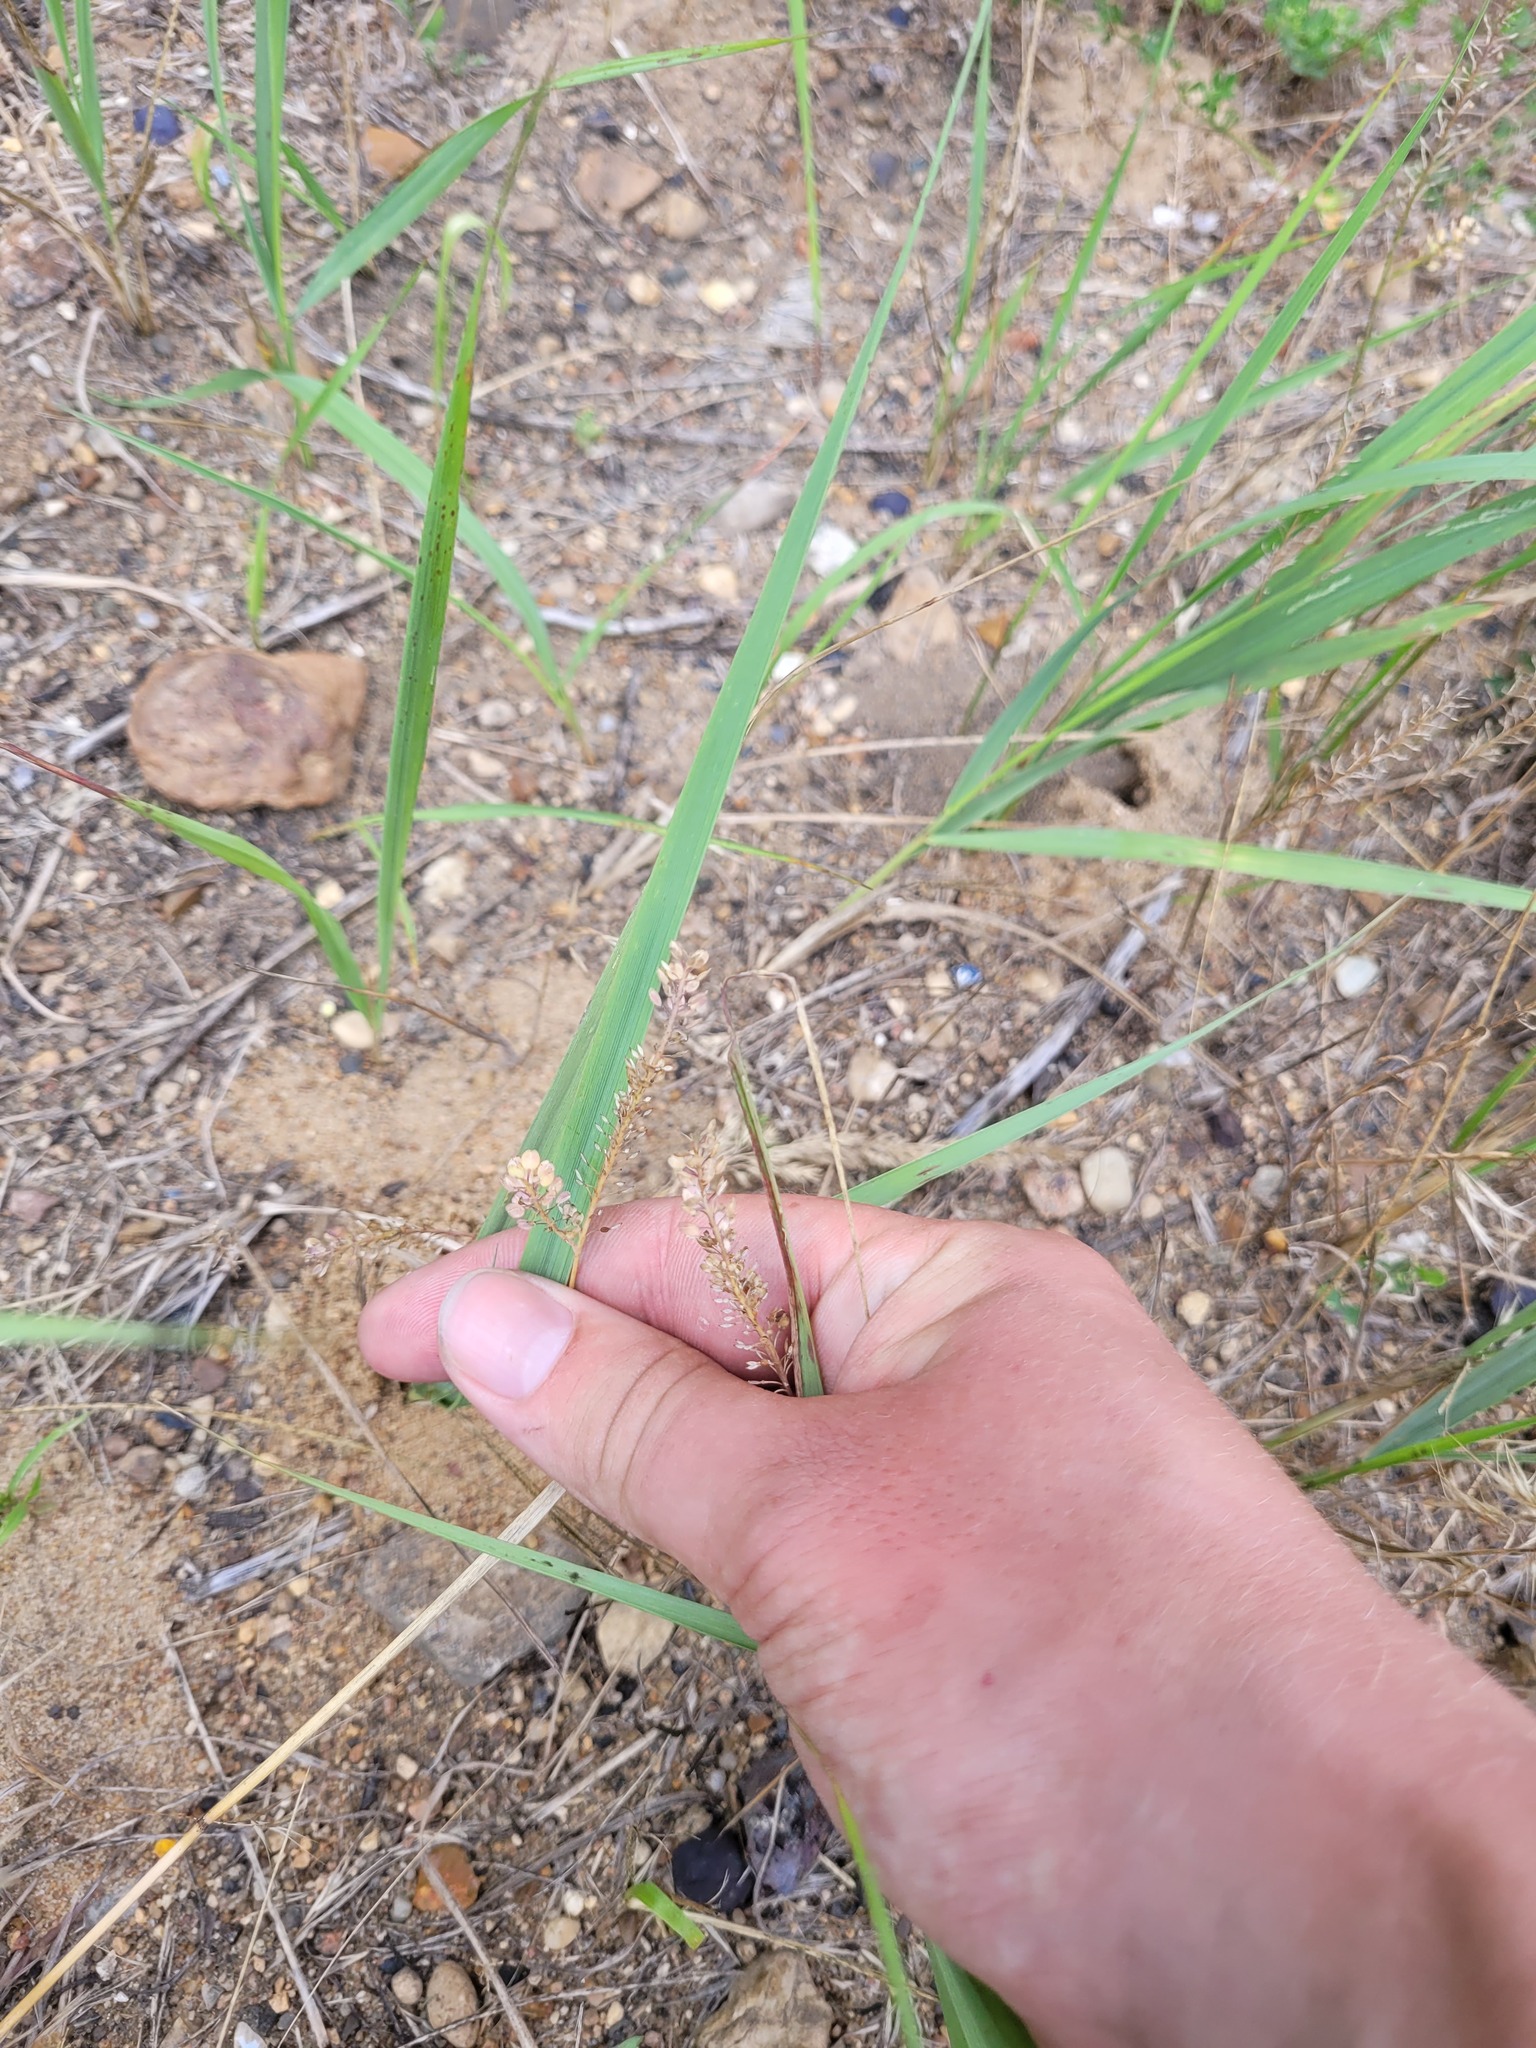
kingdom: Plantae
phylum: Tracheophyta
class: Magnoliopsida
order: Brassicales
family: Brassicaceae
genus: Lepidium
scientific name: Lepidium densiflorum
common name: Miner's pepperwort
